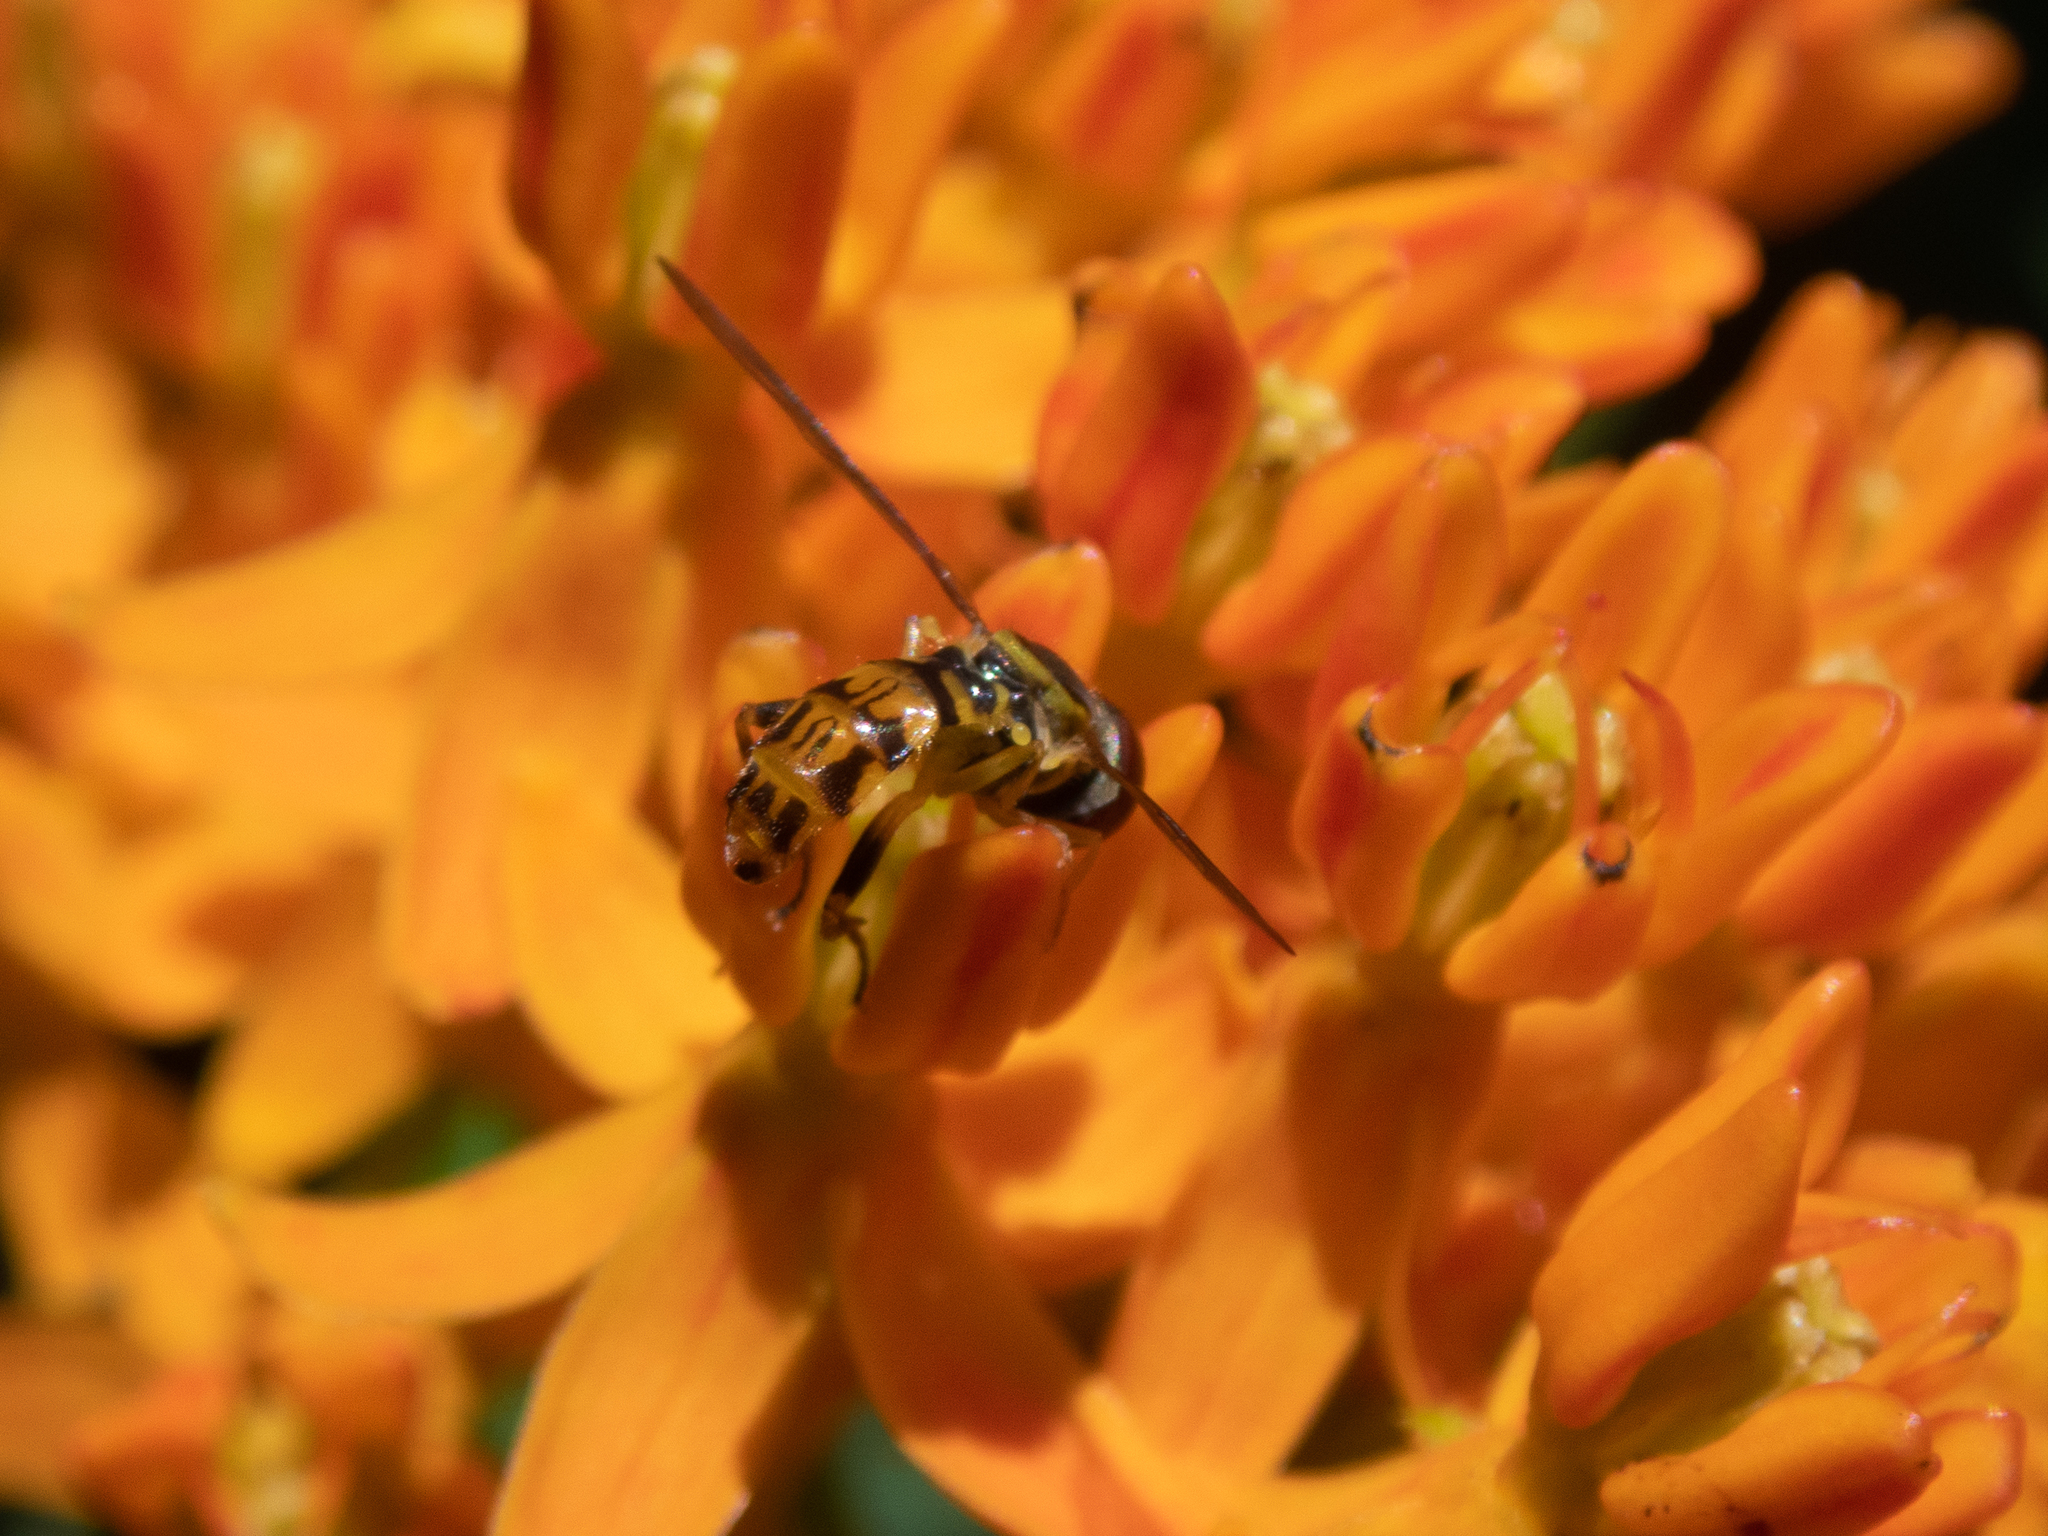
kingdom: Animalia
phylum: Arthropoda
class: Insecta
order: Diptera
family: Syrphidae
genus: Toxomerus
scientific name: Toxomerus geminatus
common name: Eastern calligrapher
